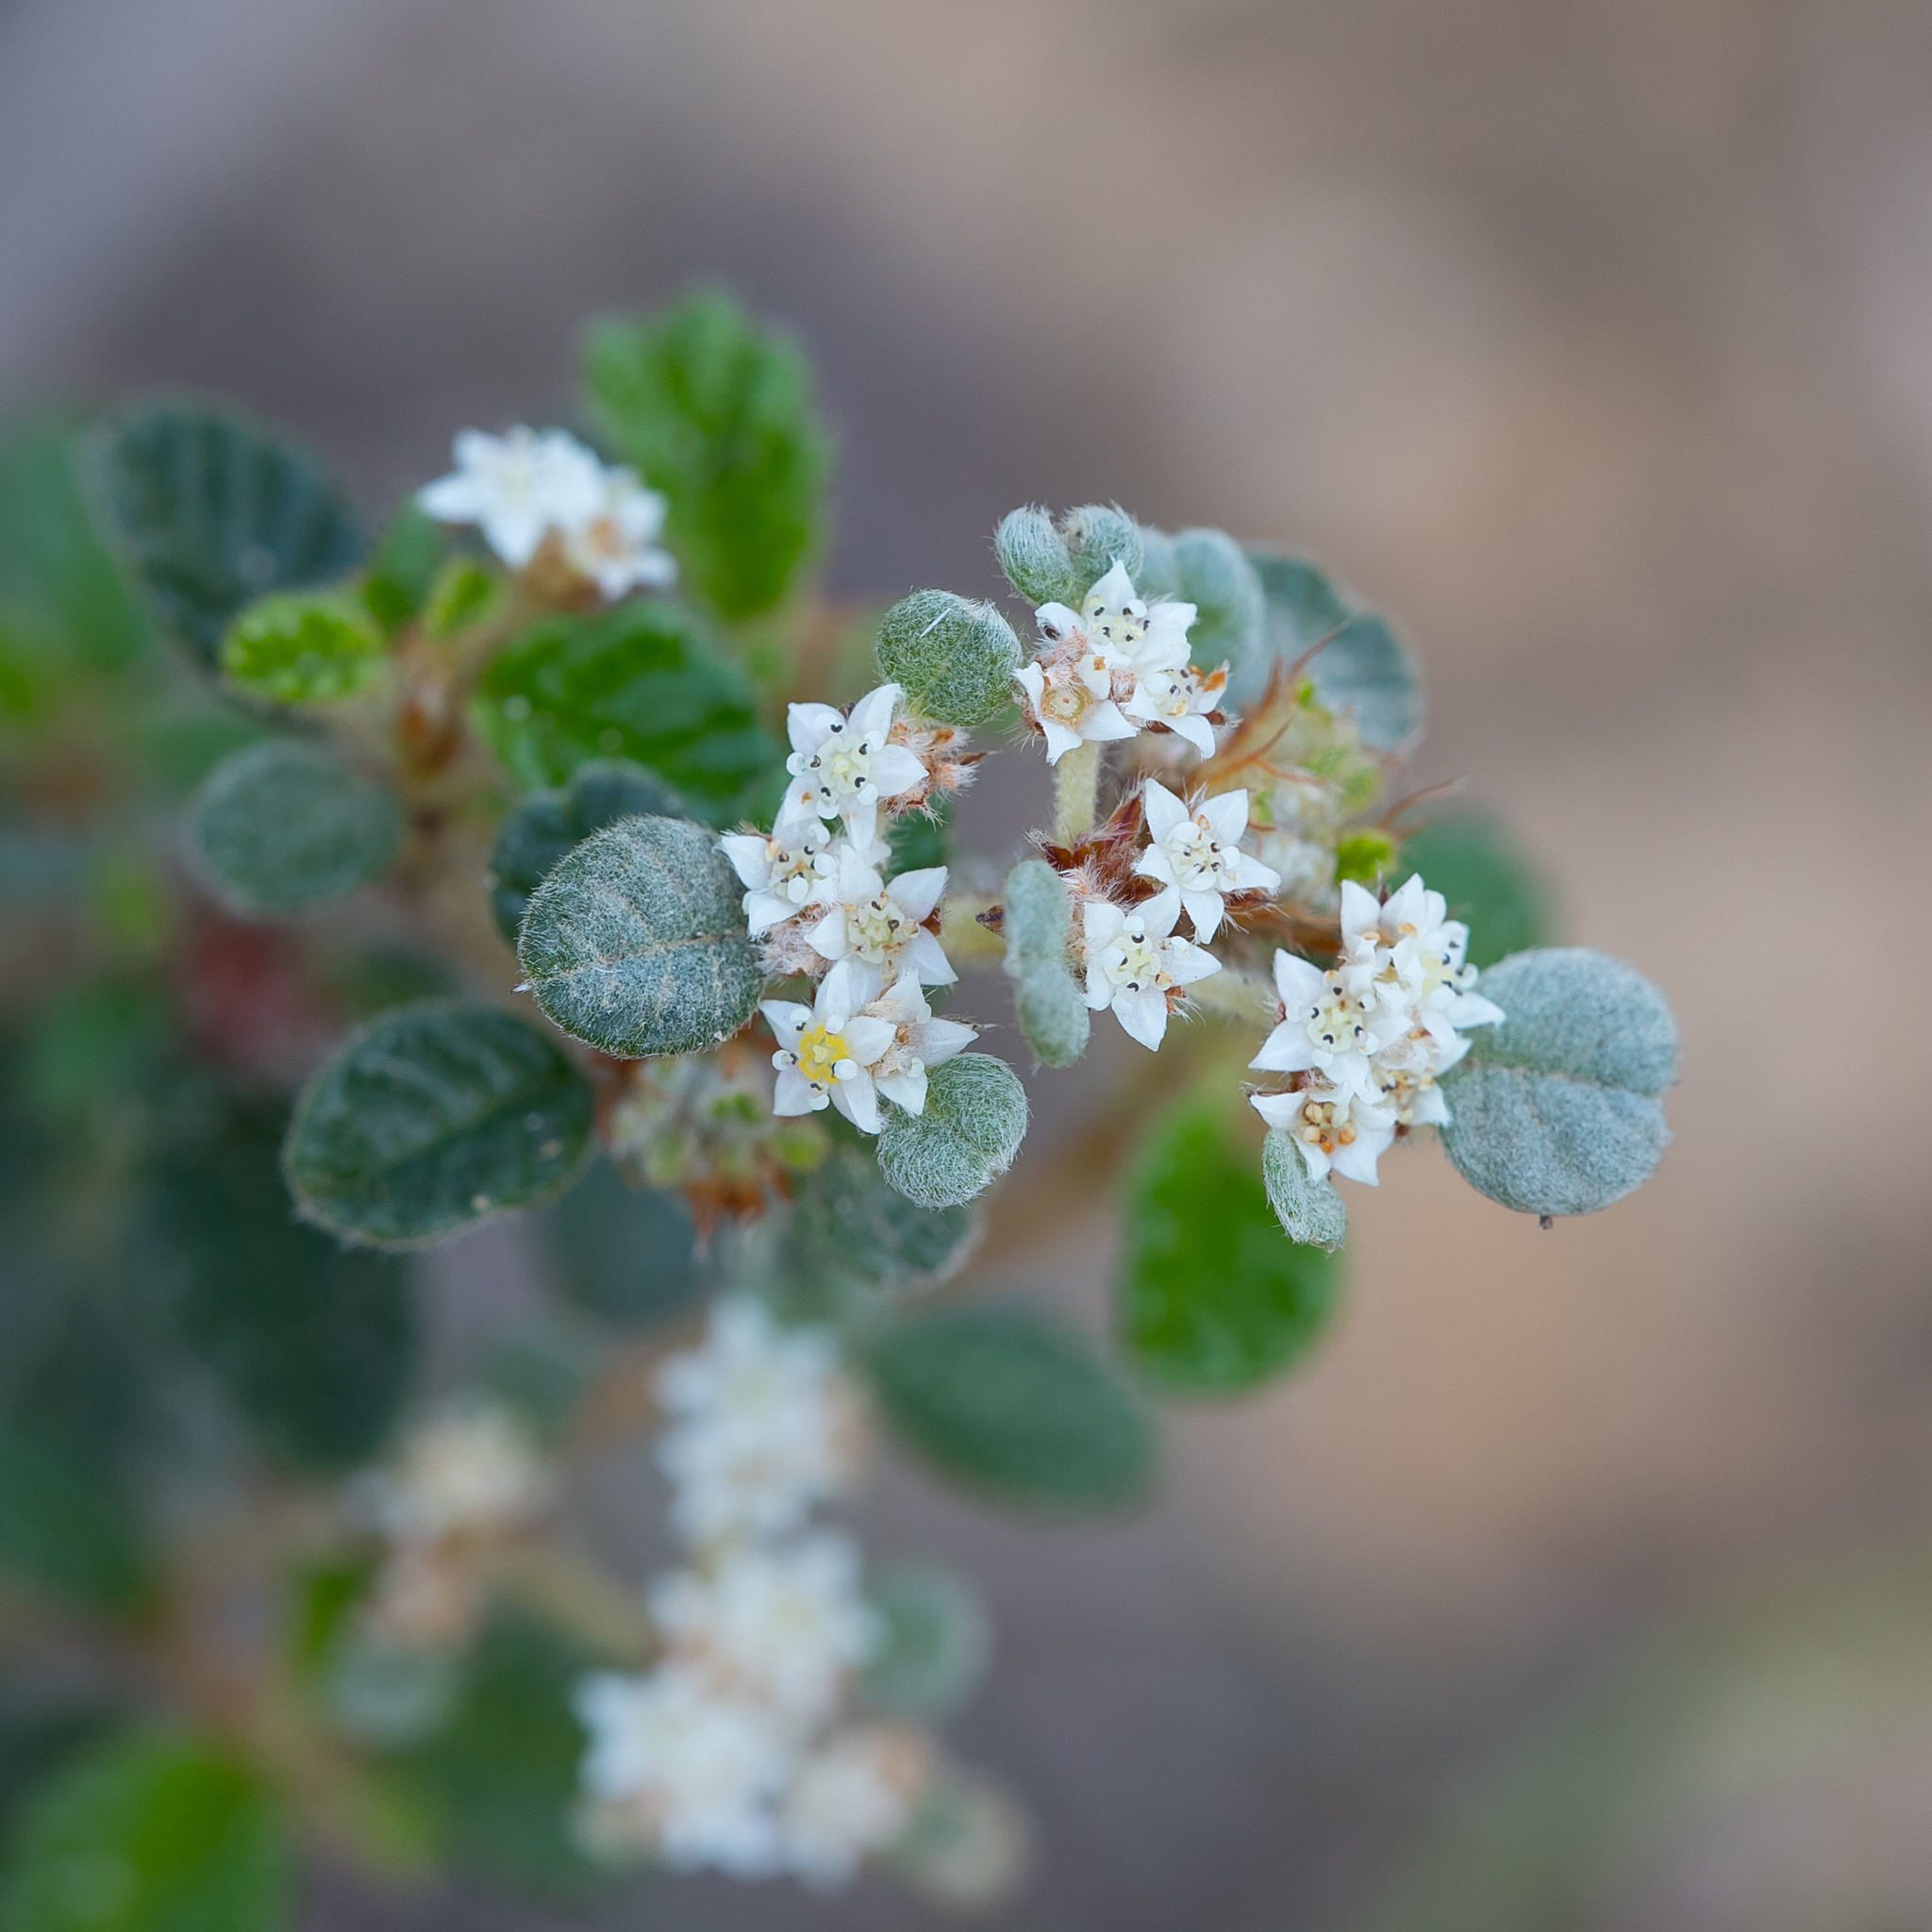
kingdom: Plantae
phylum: Tracheophyta
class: Magnoliopsida
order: Rosales
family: Rhamnaceae
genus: Spyridium
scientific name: Spyridium parvifolium
